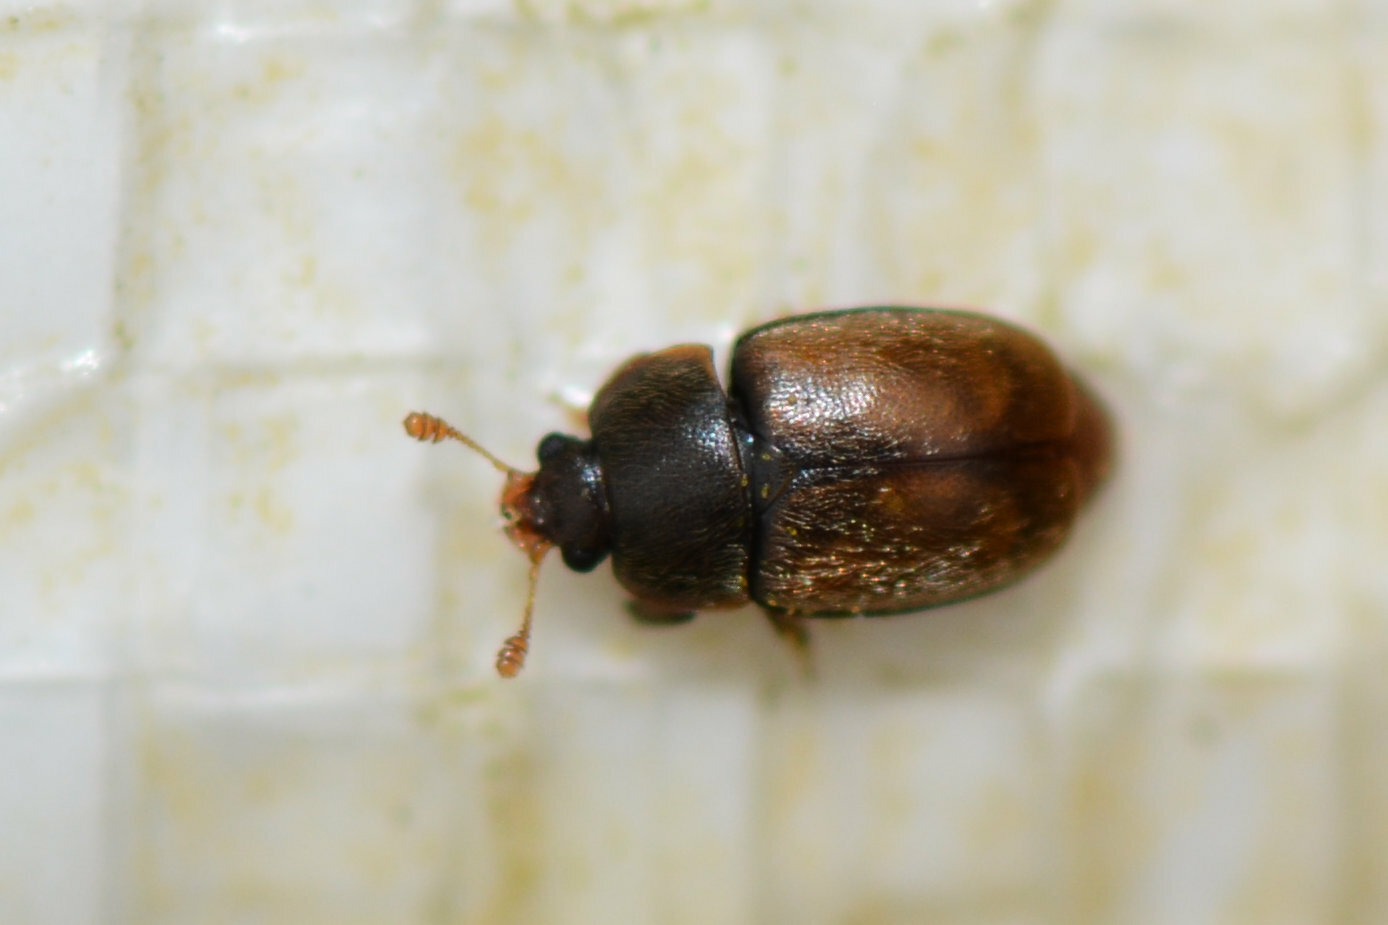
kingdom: Animalia
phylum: Arthropoda
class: Insecta
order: Coleoptera
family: Nitidulidae
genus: Epuraea
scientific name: Epuraea melanocephala
